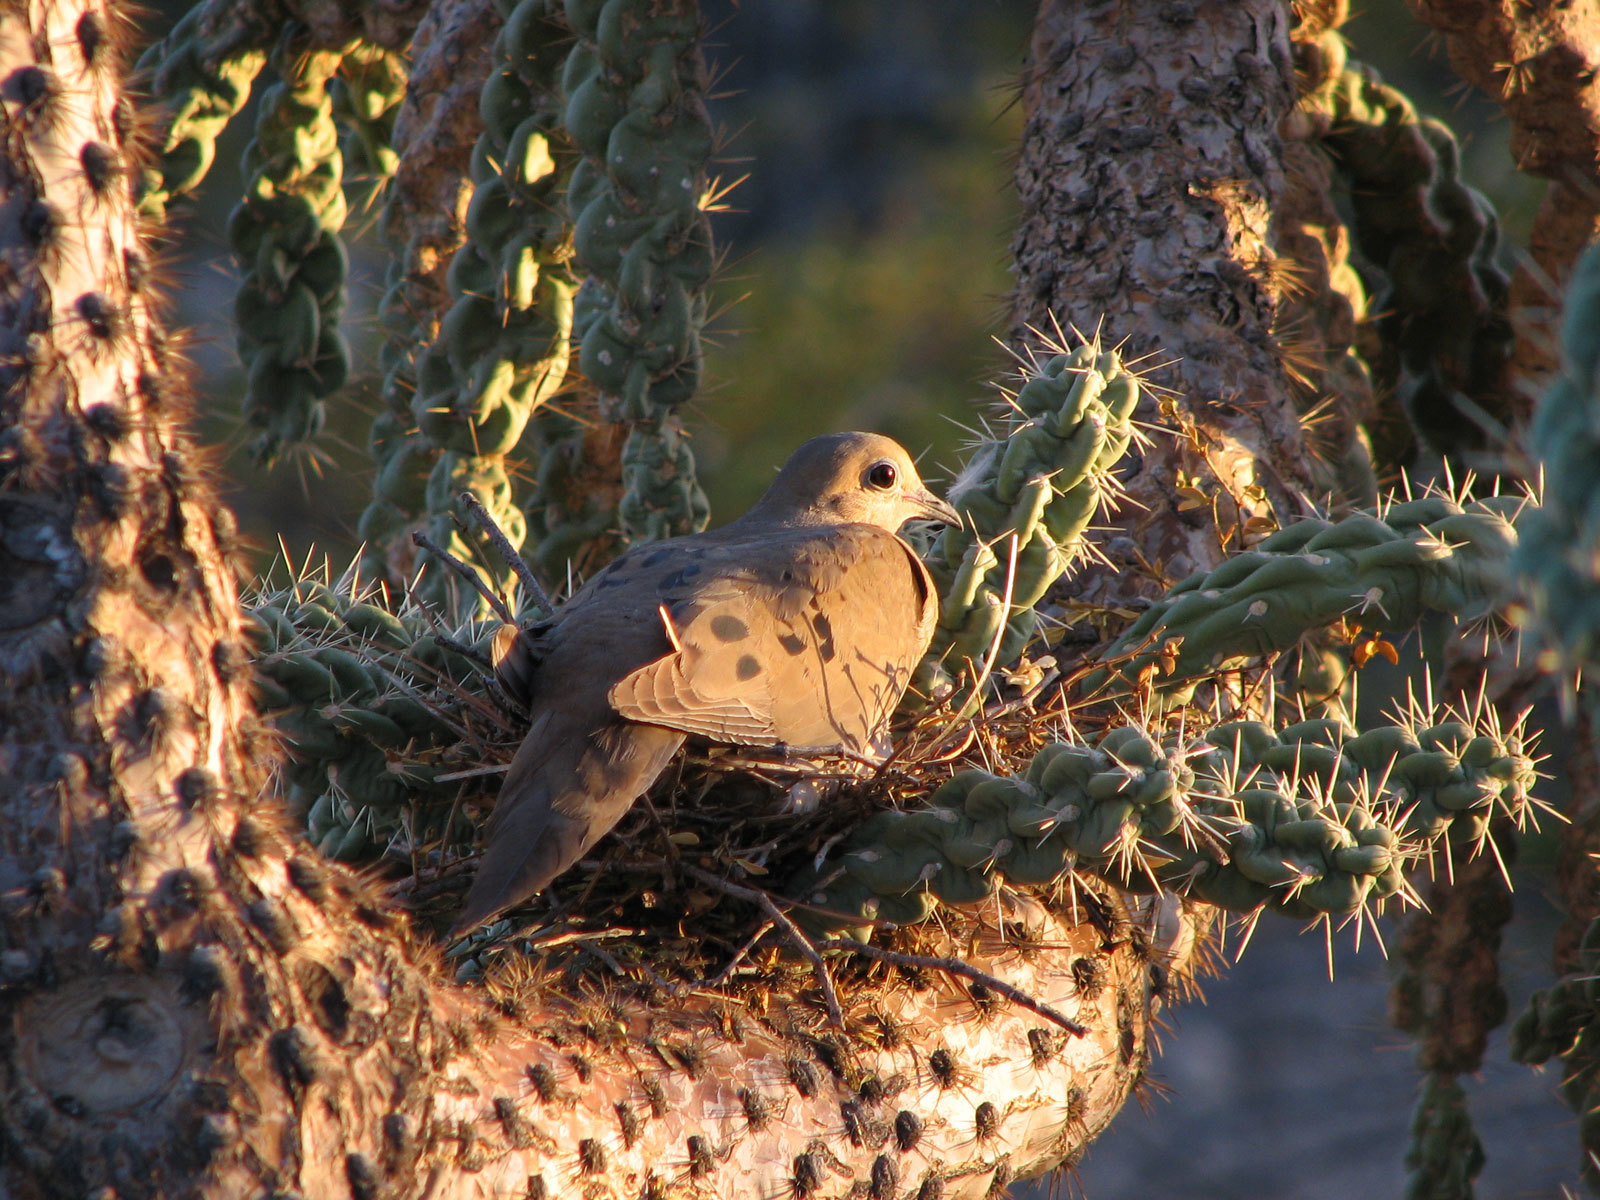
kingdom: Animalia
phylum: Chordata
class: Aves
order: Columbiformes
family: Columbidae
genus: Zenaida
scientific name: Zenaida macroura
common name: Mourning dove
